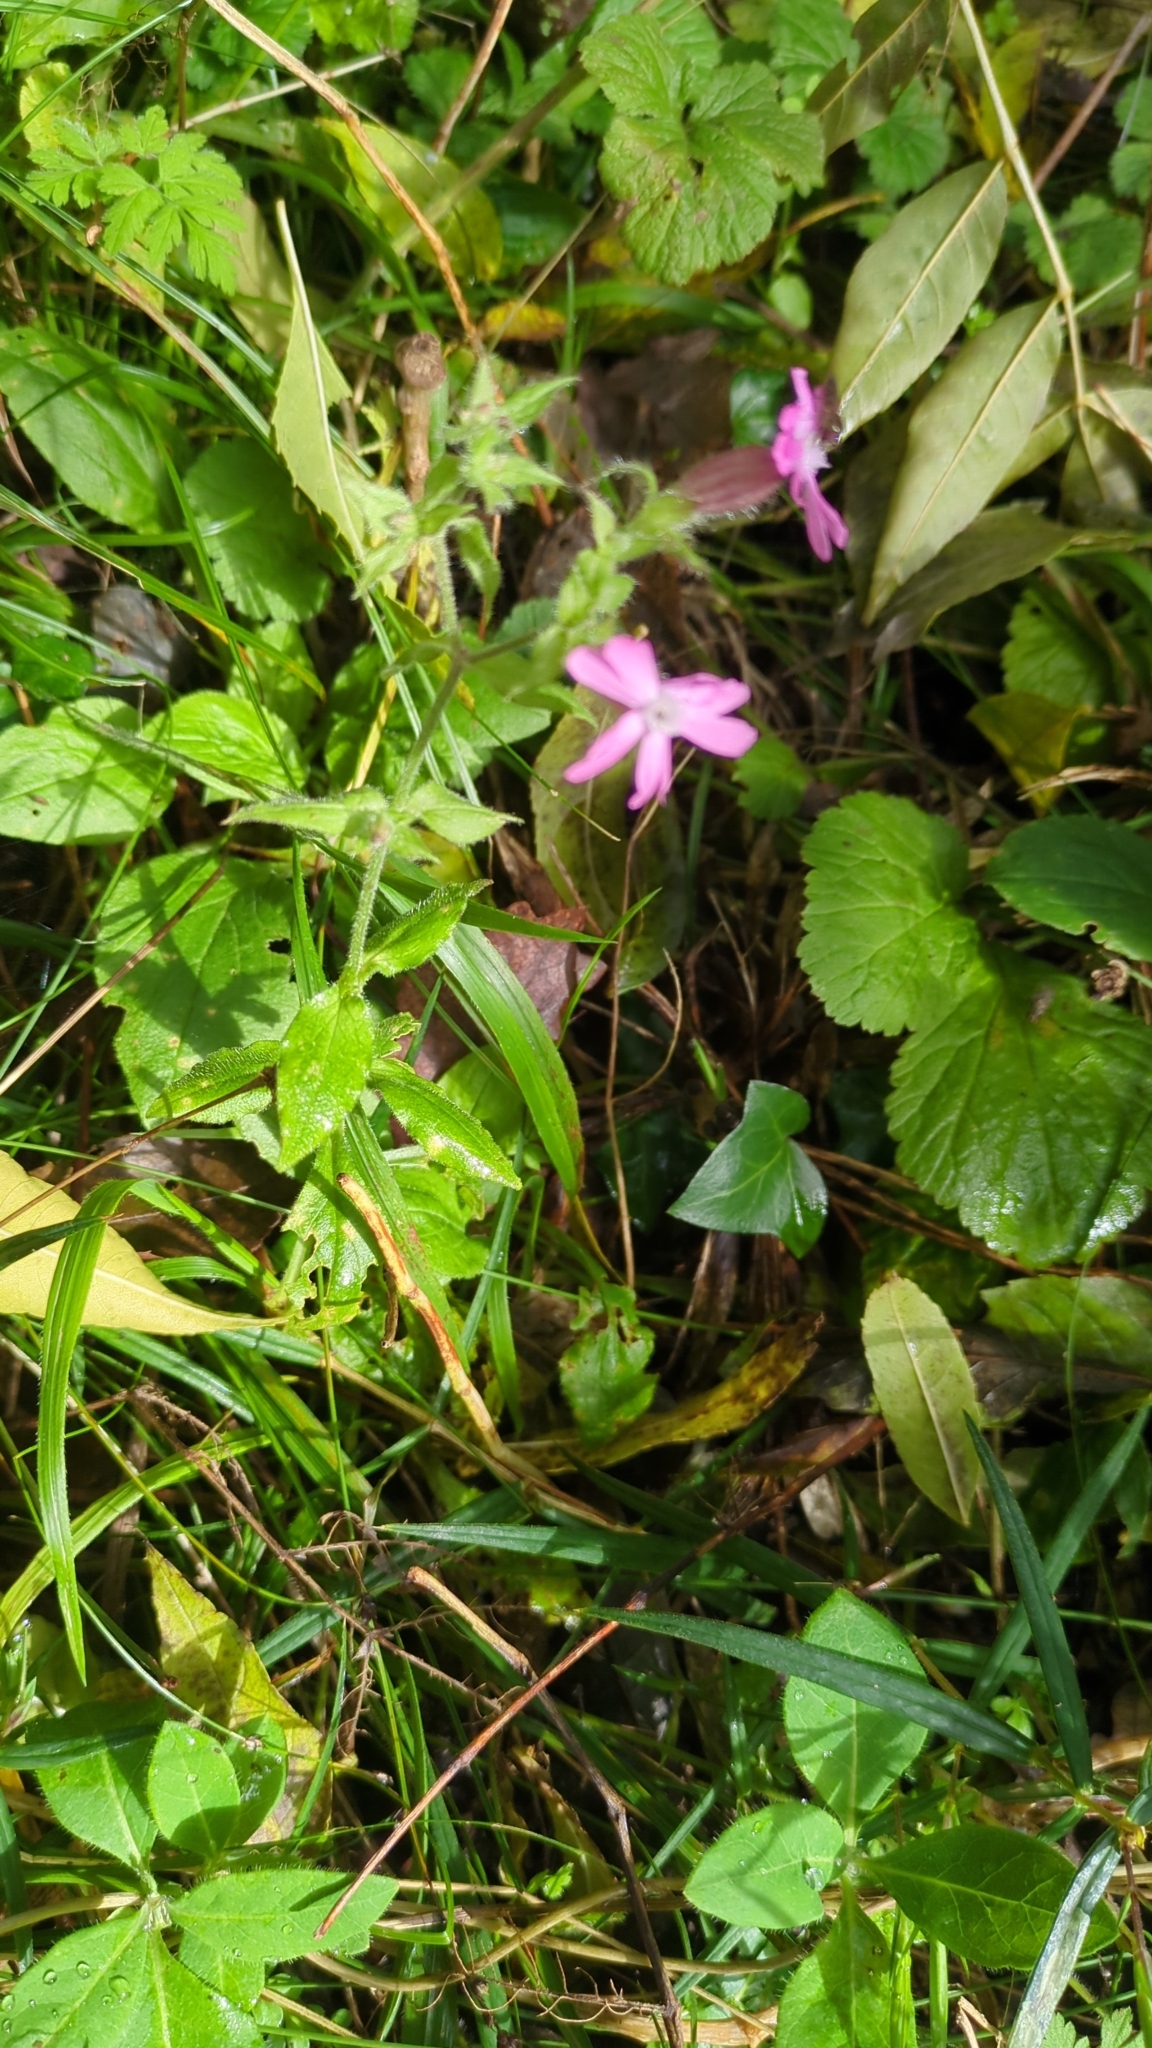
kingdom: Plantae
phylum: Tracheophyta
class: Magnoliopsida
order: Caryophyllales
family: Caryophyllaceae
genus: Silene
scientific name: Silene dioica
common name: Red campion
